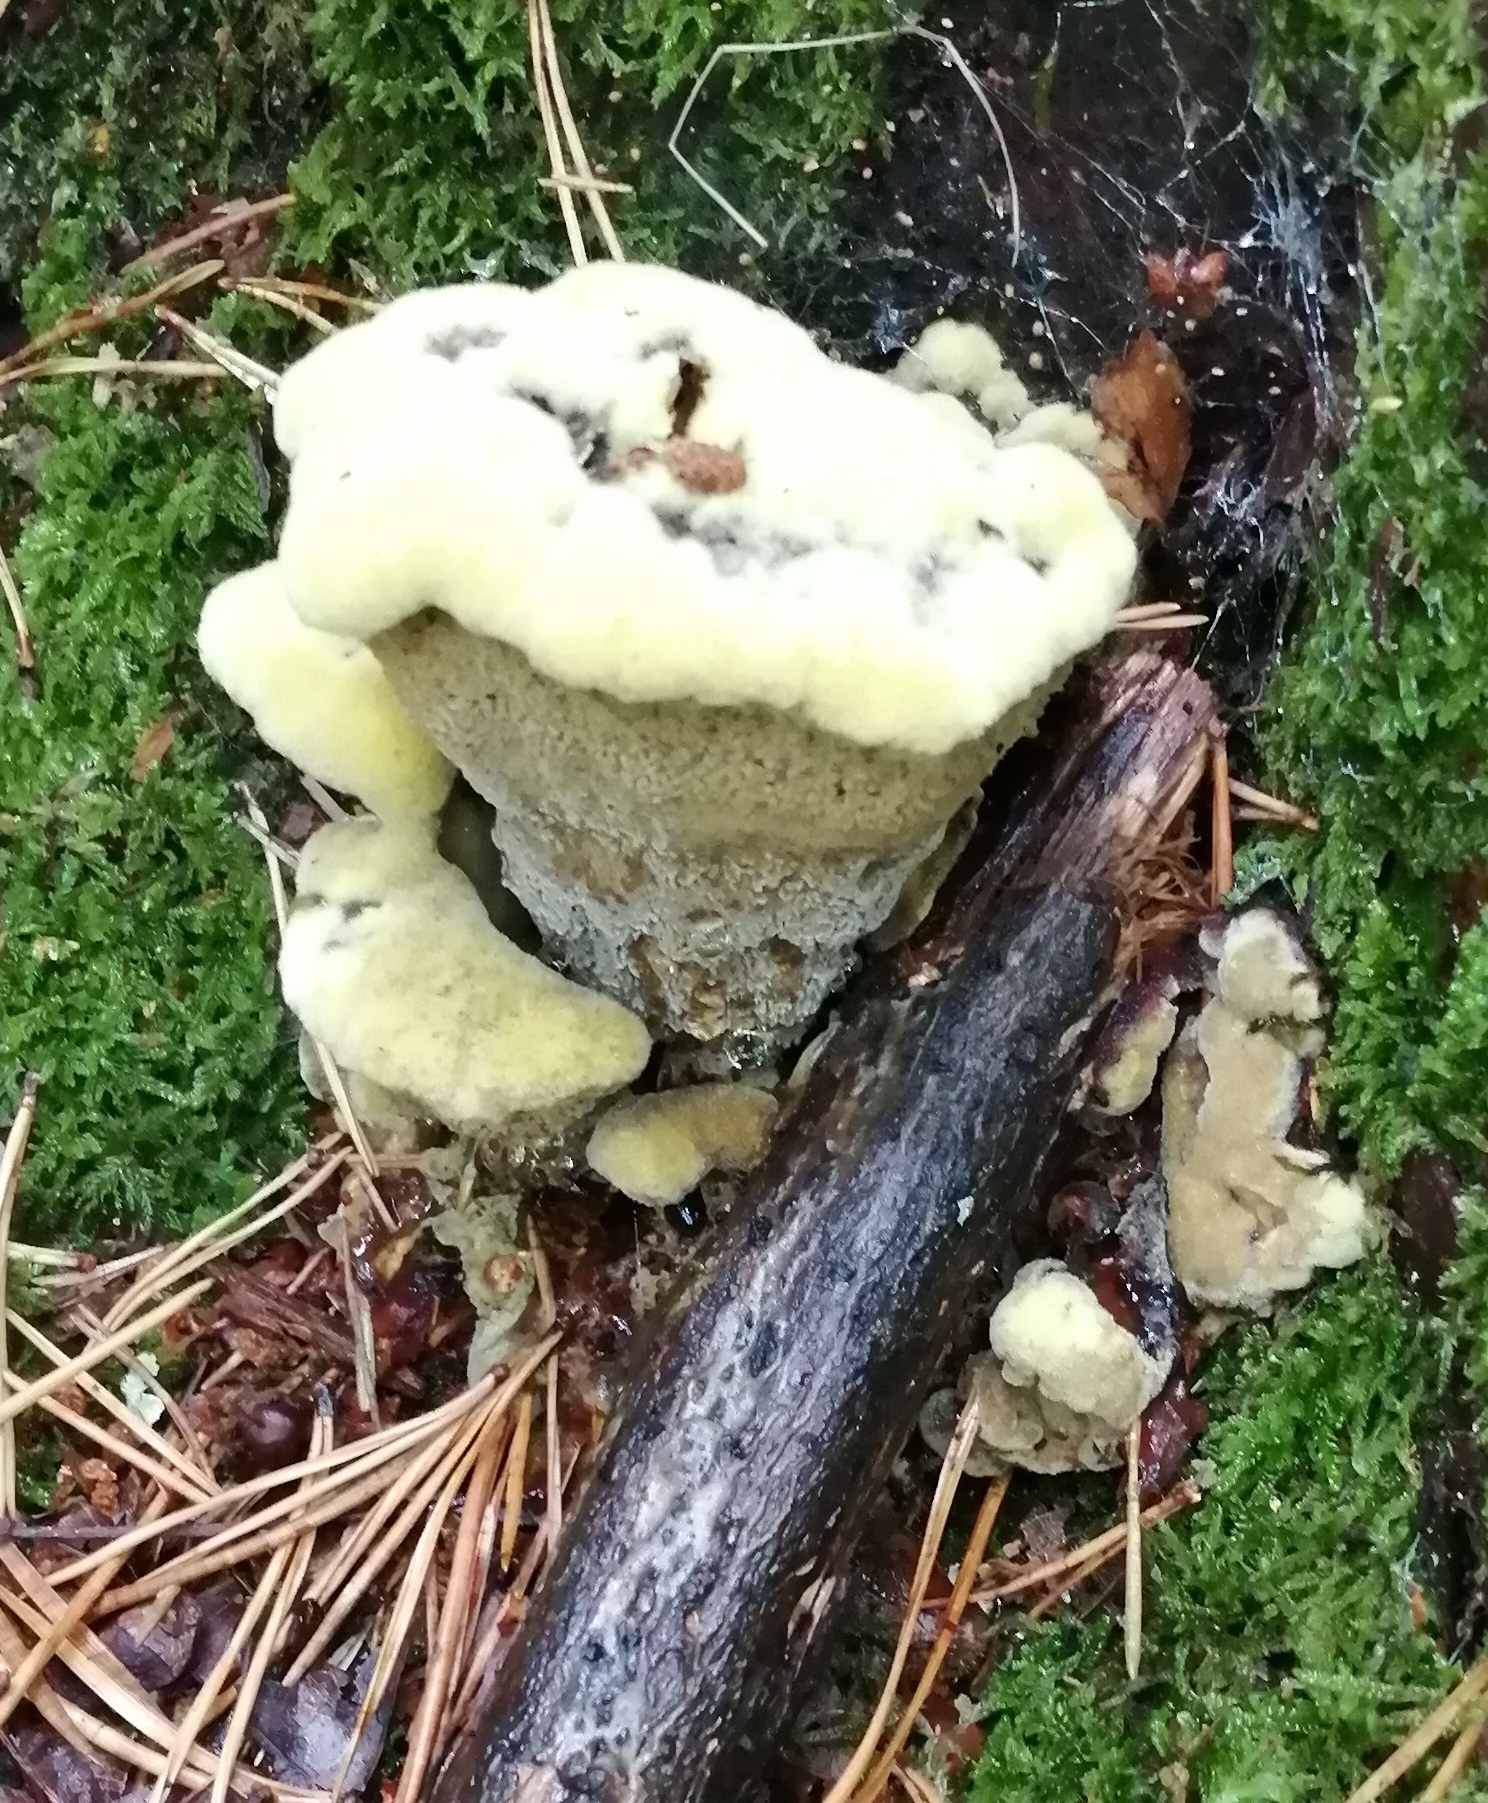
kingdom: Fungi
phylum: Basidiomycota
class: Agaricomycetes
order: Polyporales
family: Laetiporaceae
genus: Phaeolus
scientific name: Phaeolus schweinitzii
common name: Dyer's mazegill
